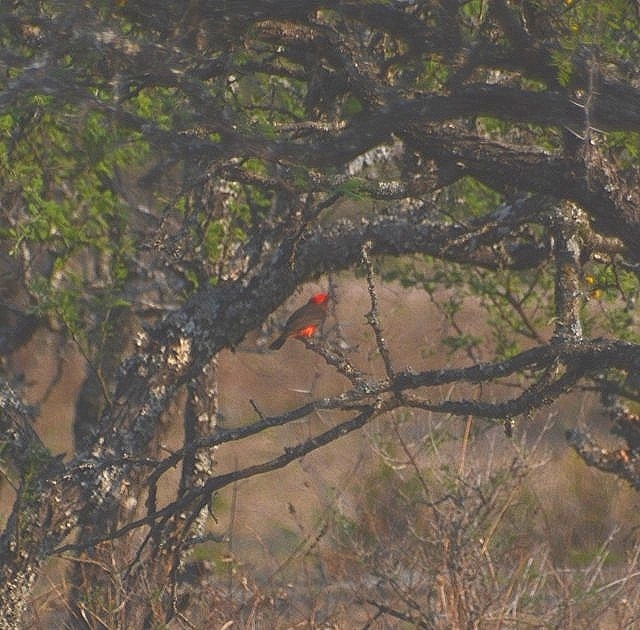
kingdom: Animalia
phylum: Chordata
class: Aves
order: Passeriformes
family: Tyrannidae
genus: Pyrocephalus
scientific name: Pyrocephalus rubinus
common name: Vermilion flycatcher
